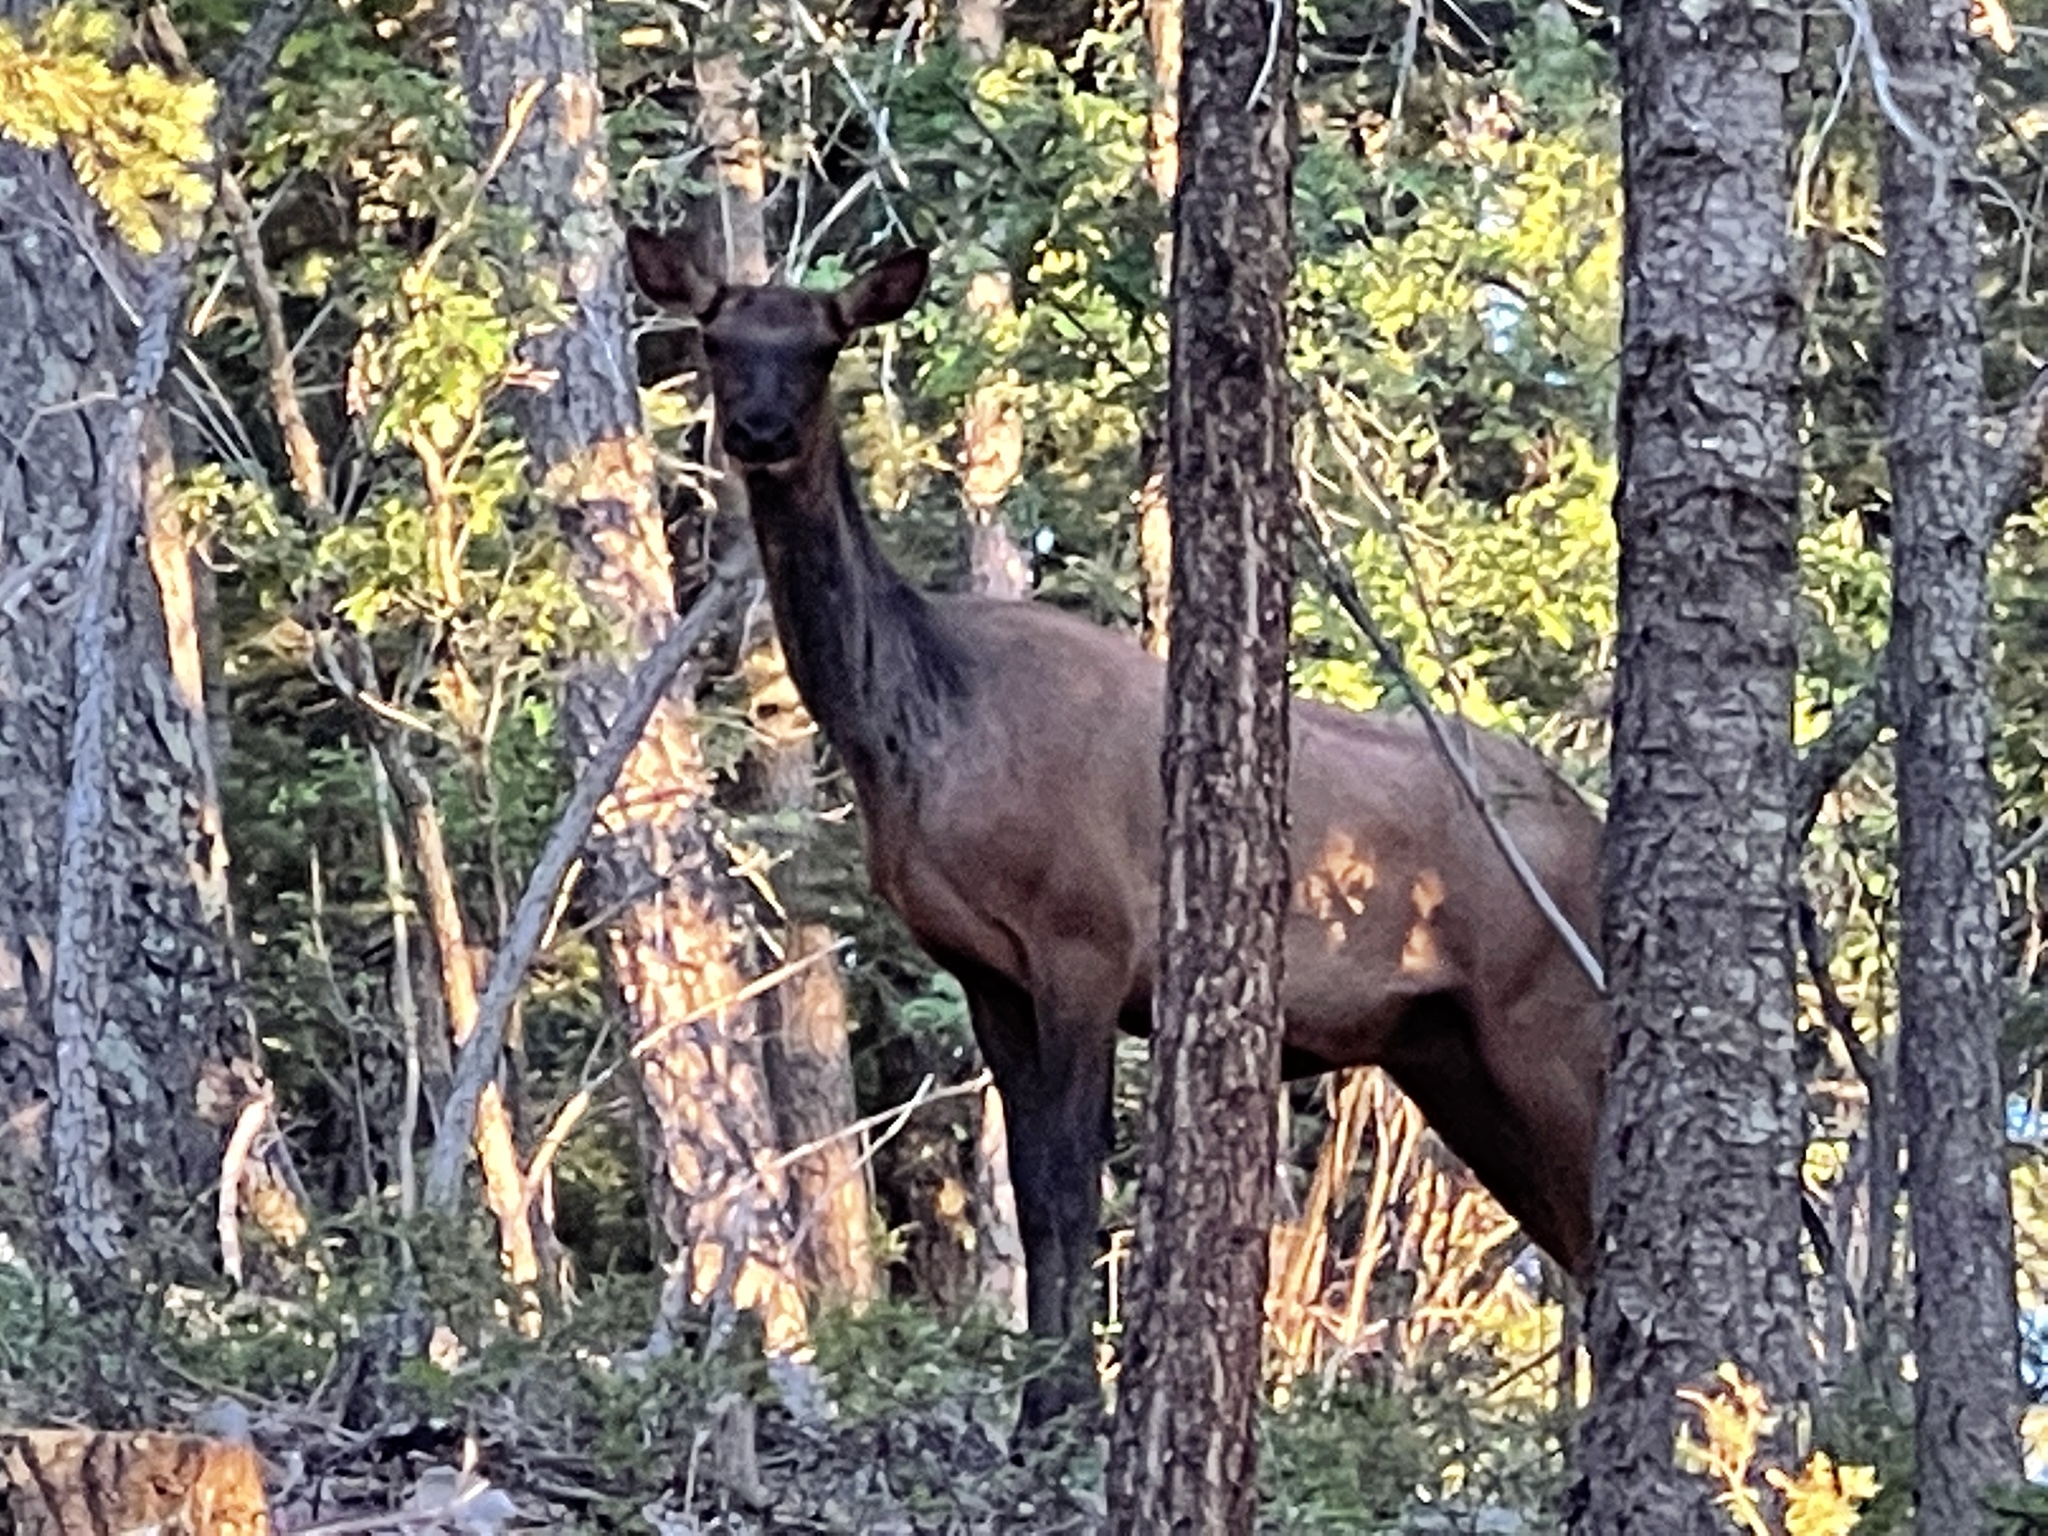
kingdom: Animalia
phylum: Chordata
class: Mammalia
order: Artiodactyla
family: Cervidae
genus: Cervus
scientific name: Cervus elaphus
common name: Red deer
